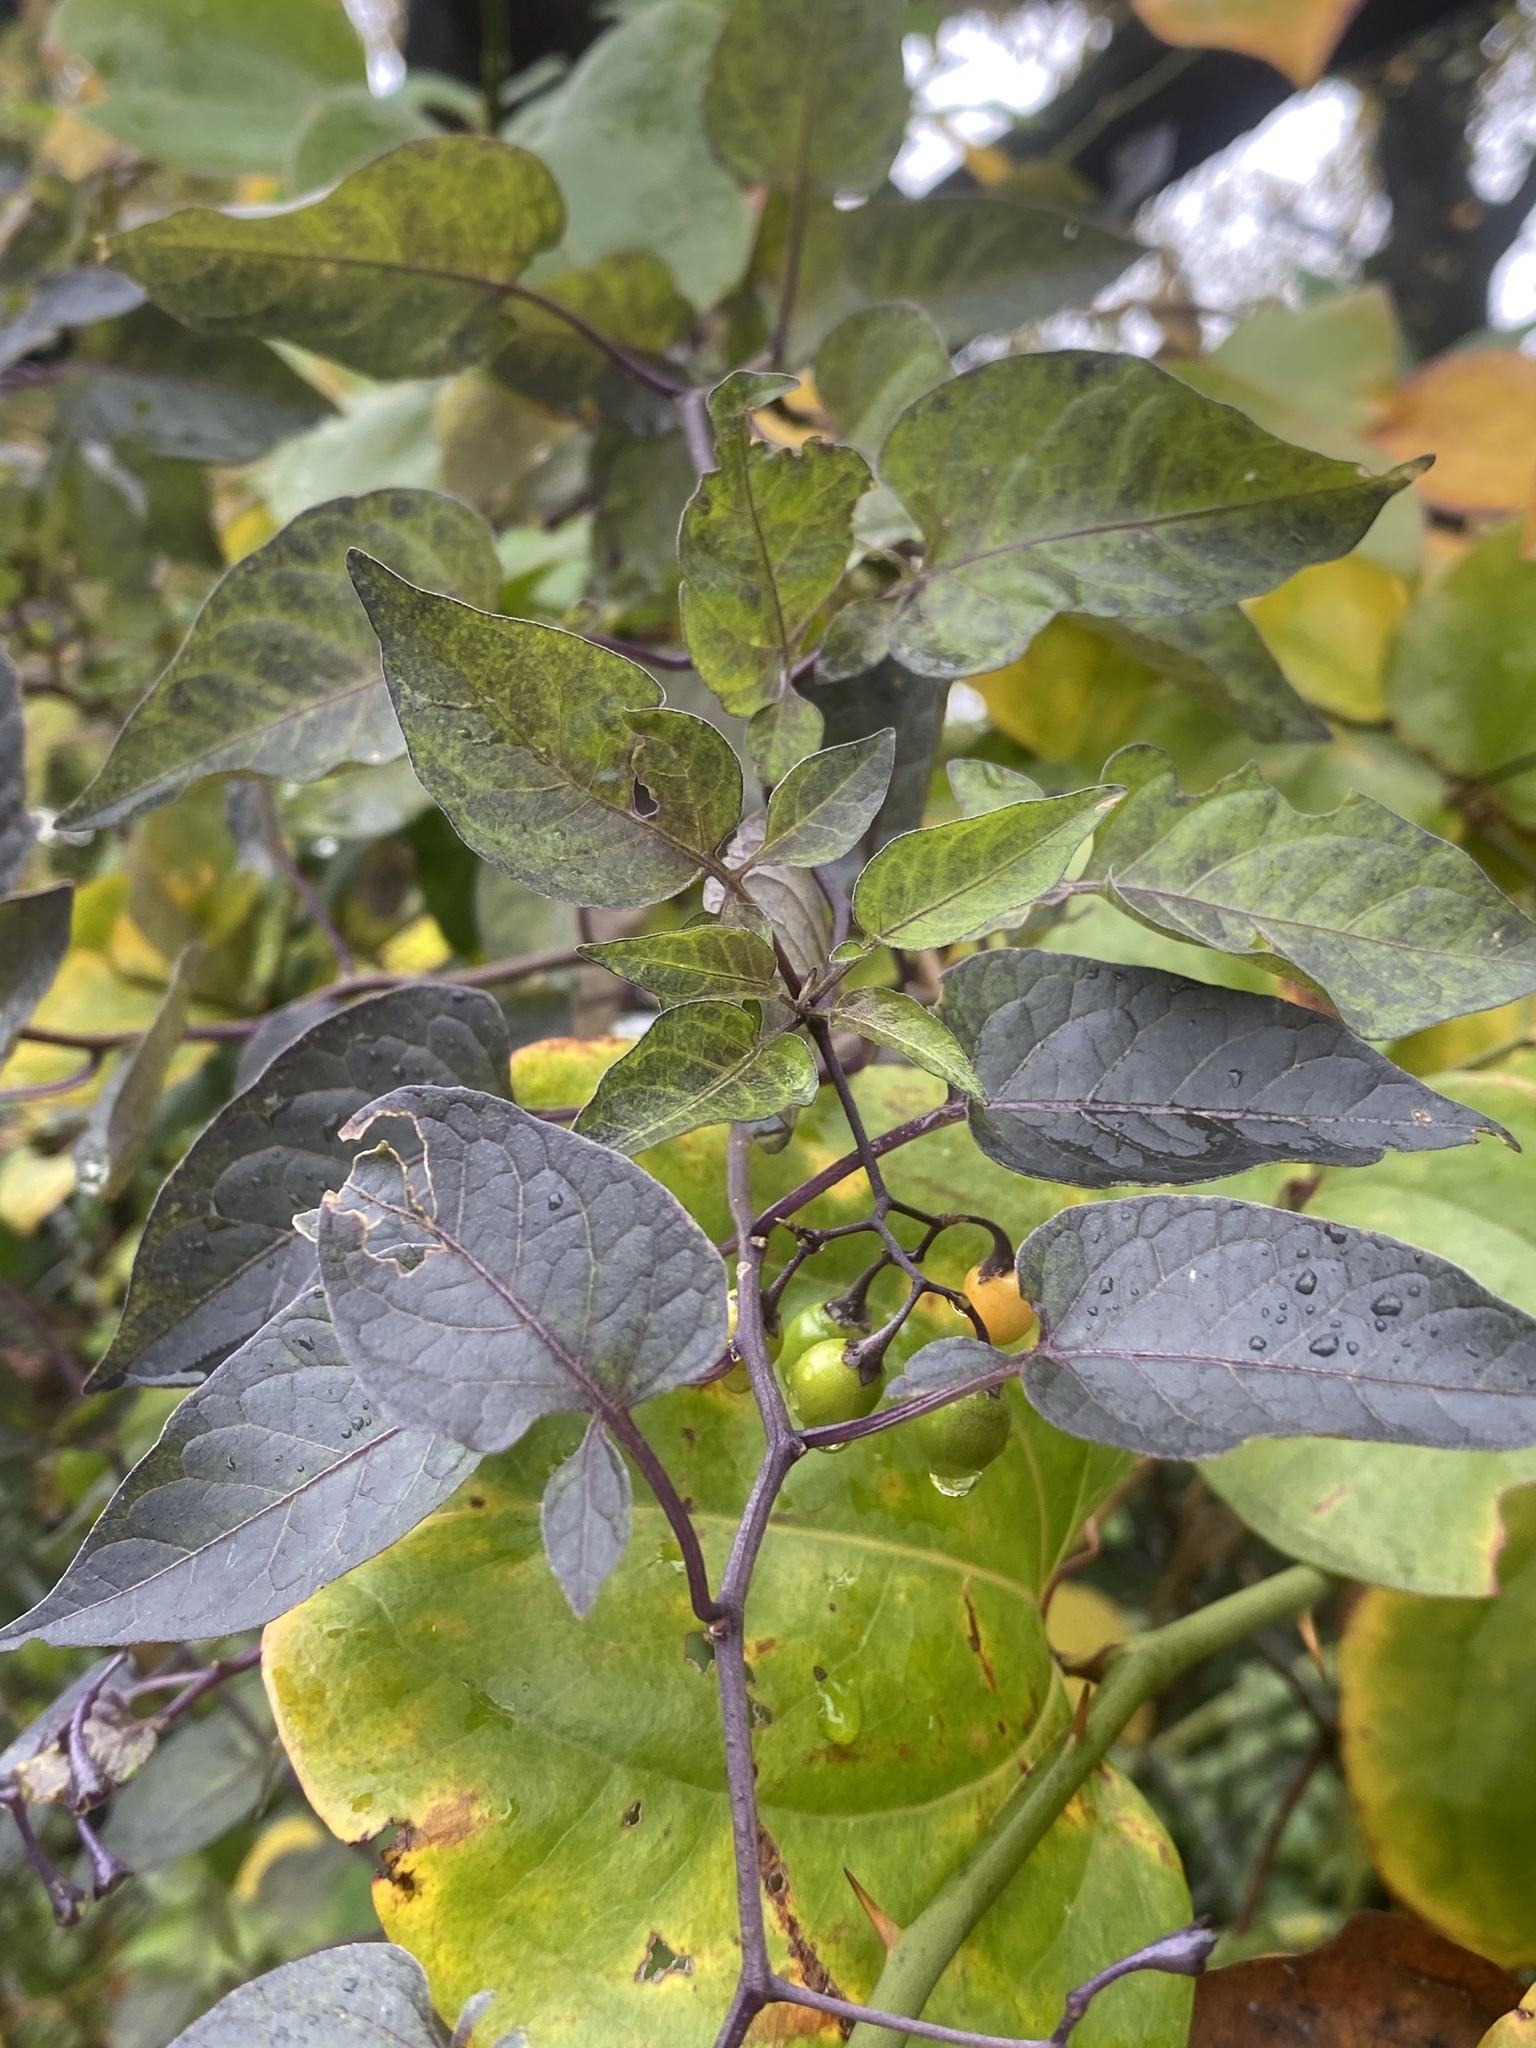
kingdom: Plantae
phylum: Tracheophyta
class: Magnoliopsida
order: Solanales
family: Solanaceae
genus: Solanum
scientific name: Solanum dulcamara
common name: Climbing nightshade
